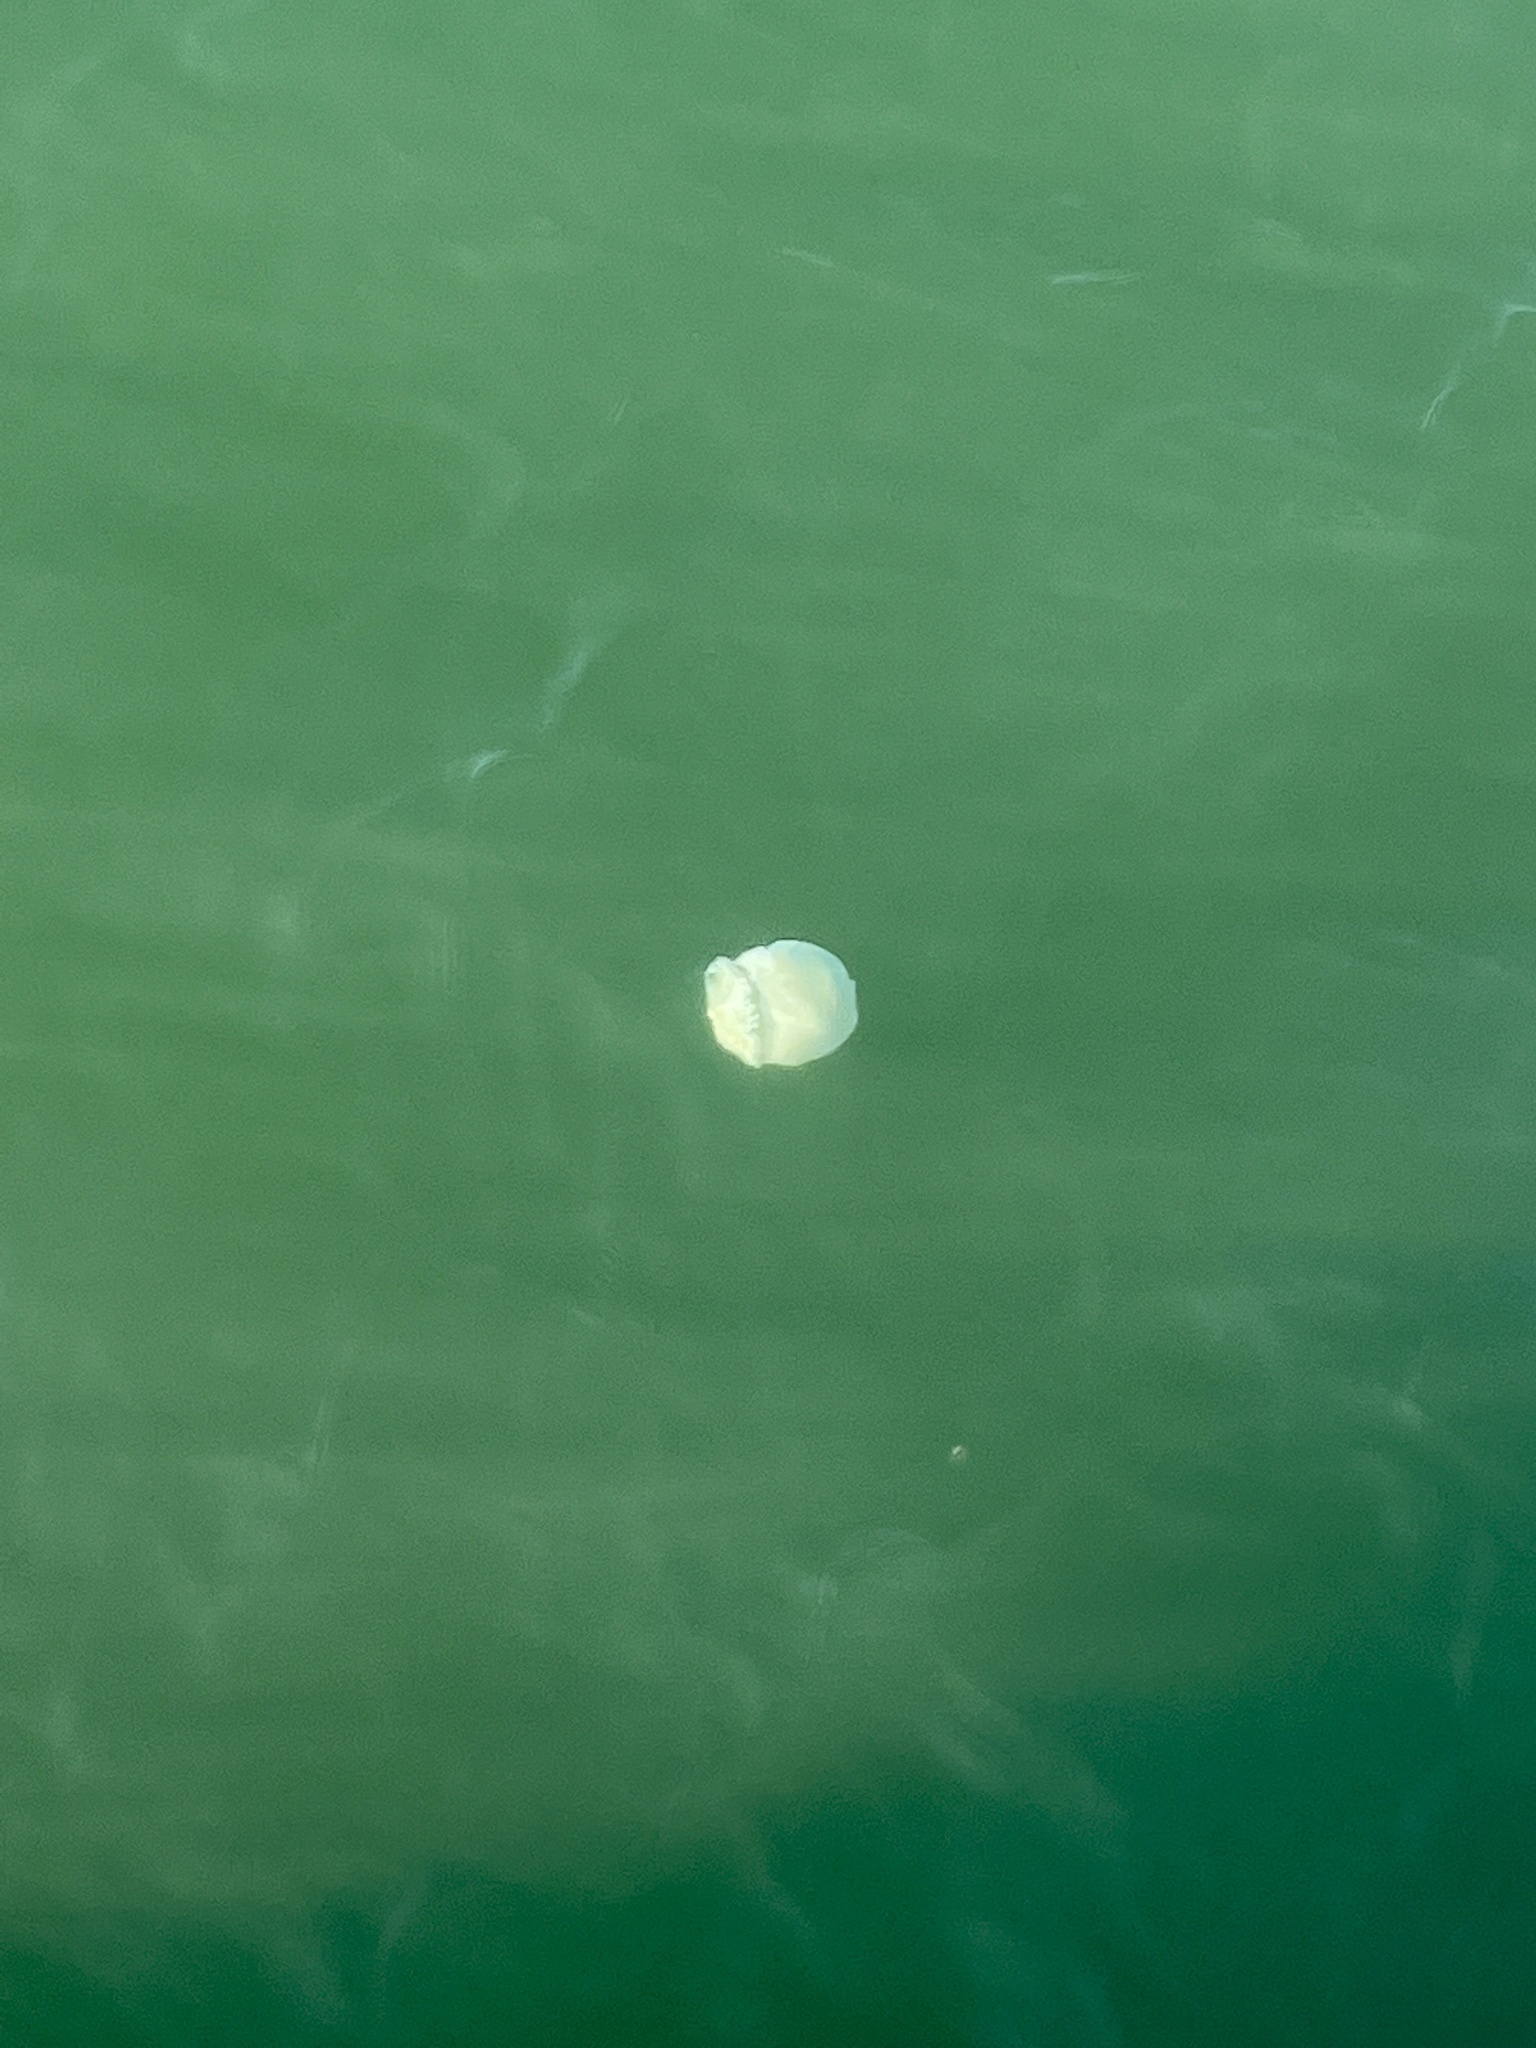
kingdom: Animalia
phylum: Cnidaria
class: Scyphozoa
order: Rhizostomeae
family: Stomolophidae
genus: Stomolophus
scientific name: Stomolophus meleagris
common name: Cabbagehead
